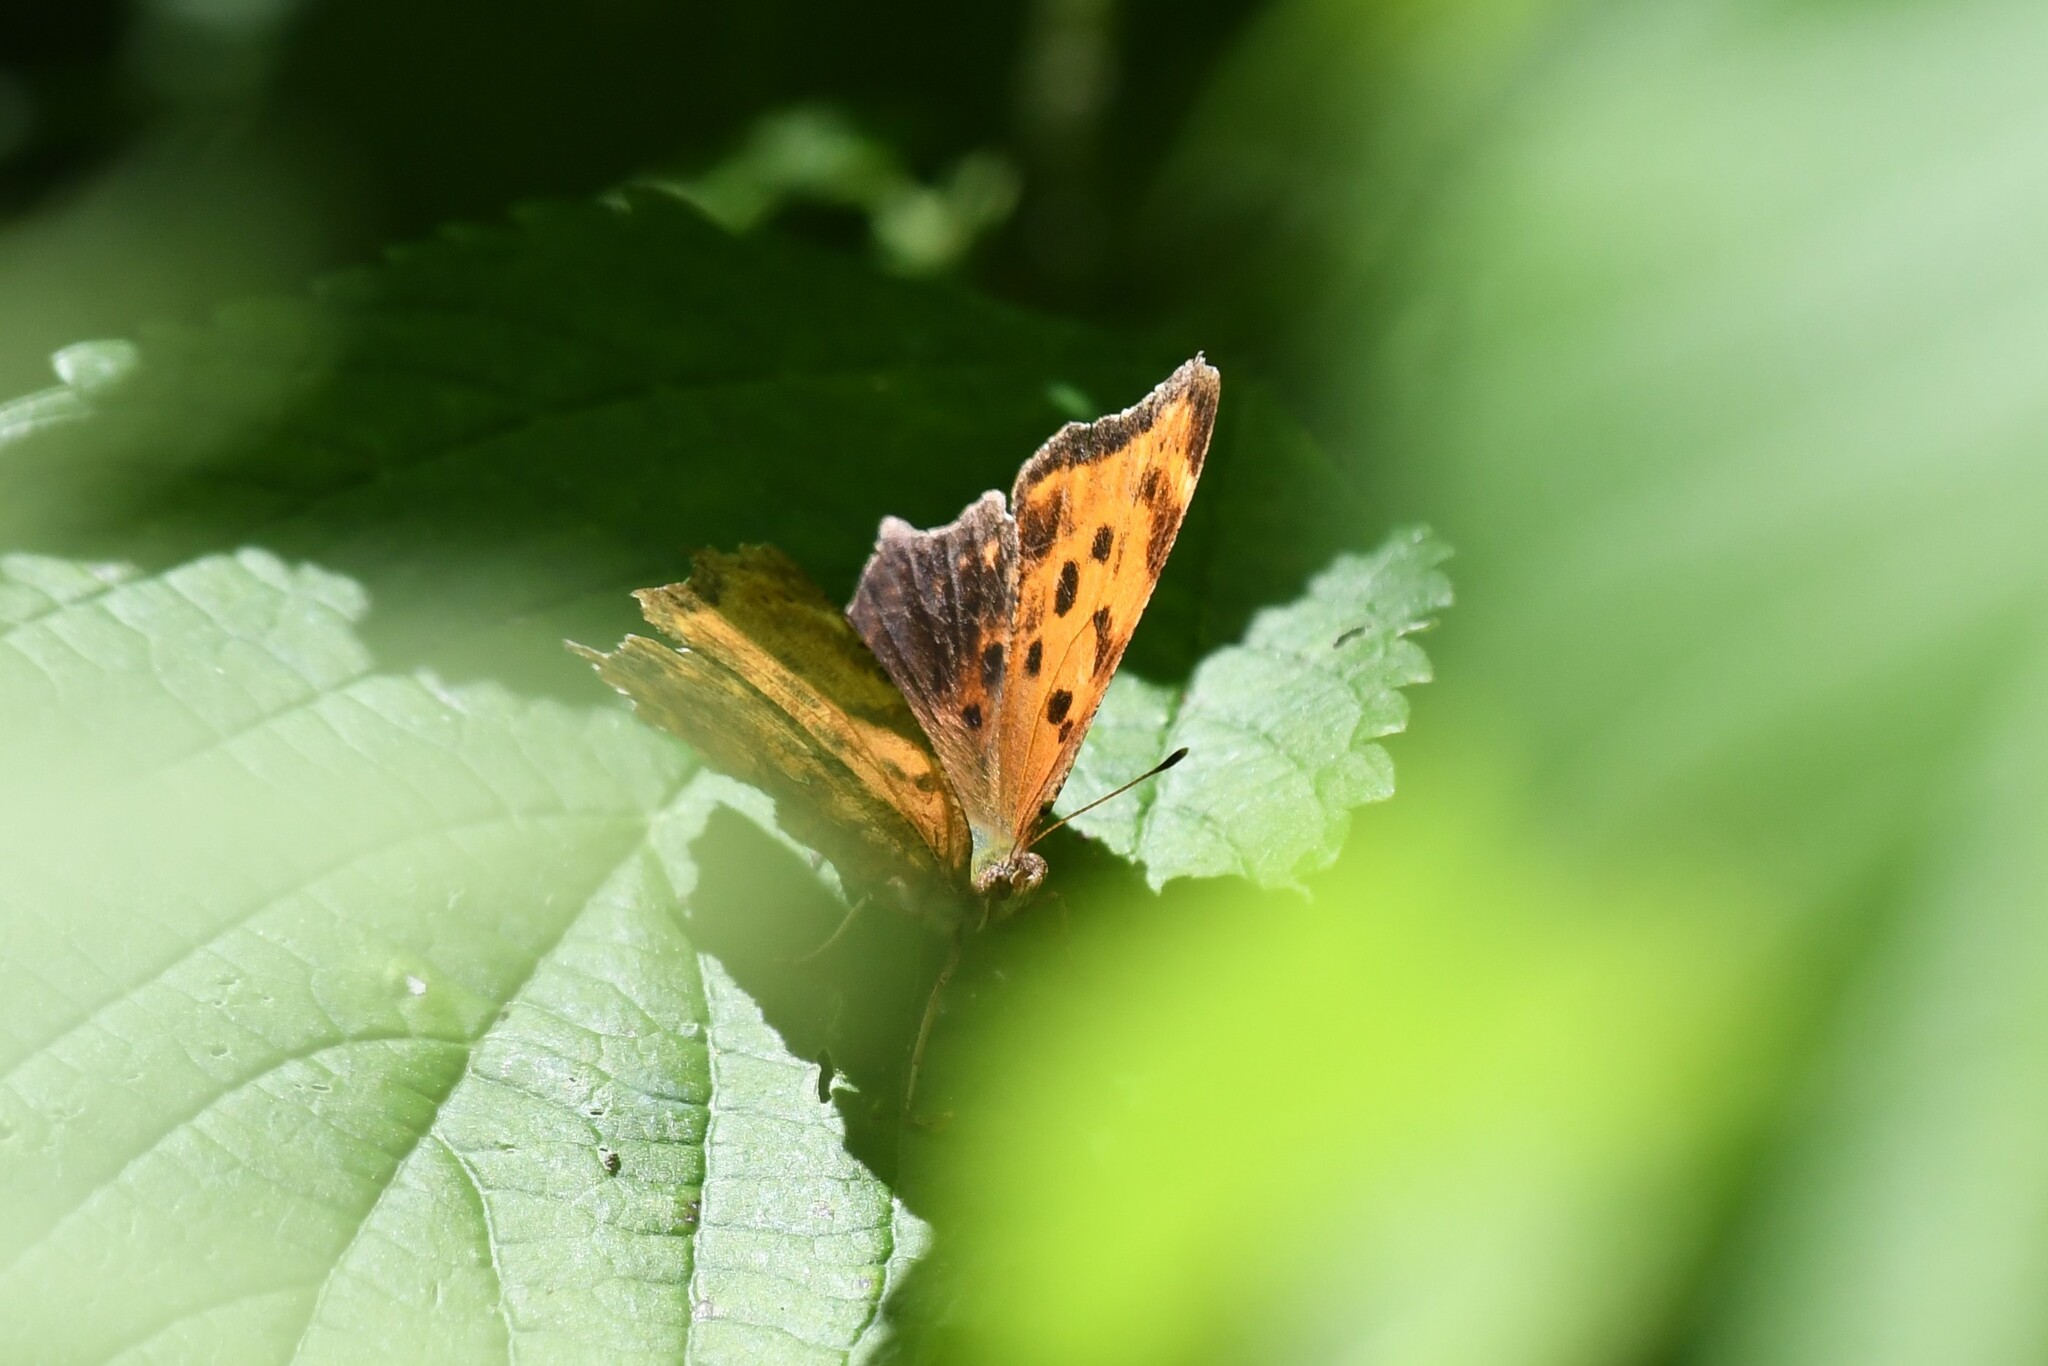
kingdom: Animalia
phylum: Arthropoda
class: Insecta
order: Lepidoptera
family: Nymphalidae
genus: Polygonia
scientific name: Polygonia comma
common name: Eastern comma
